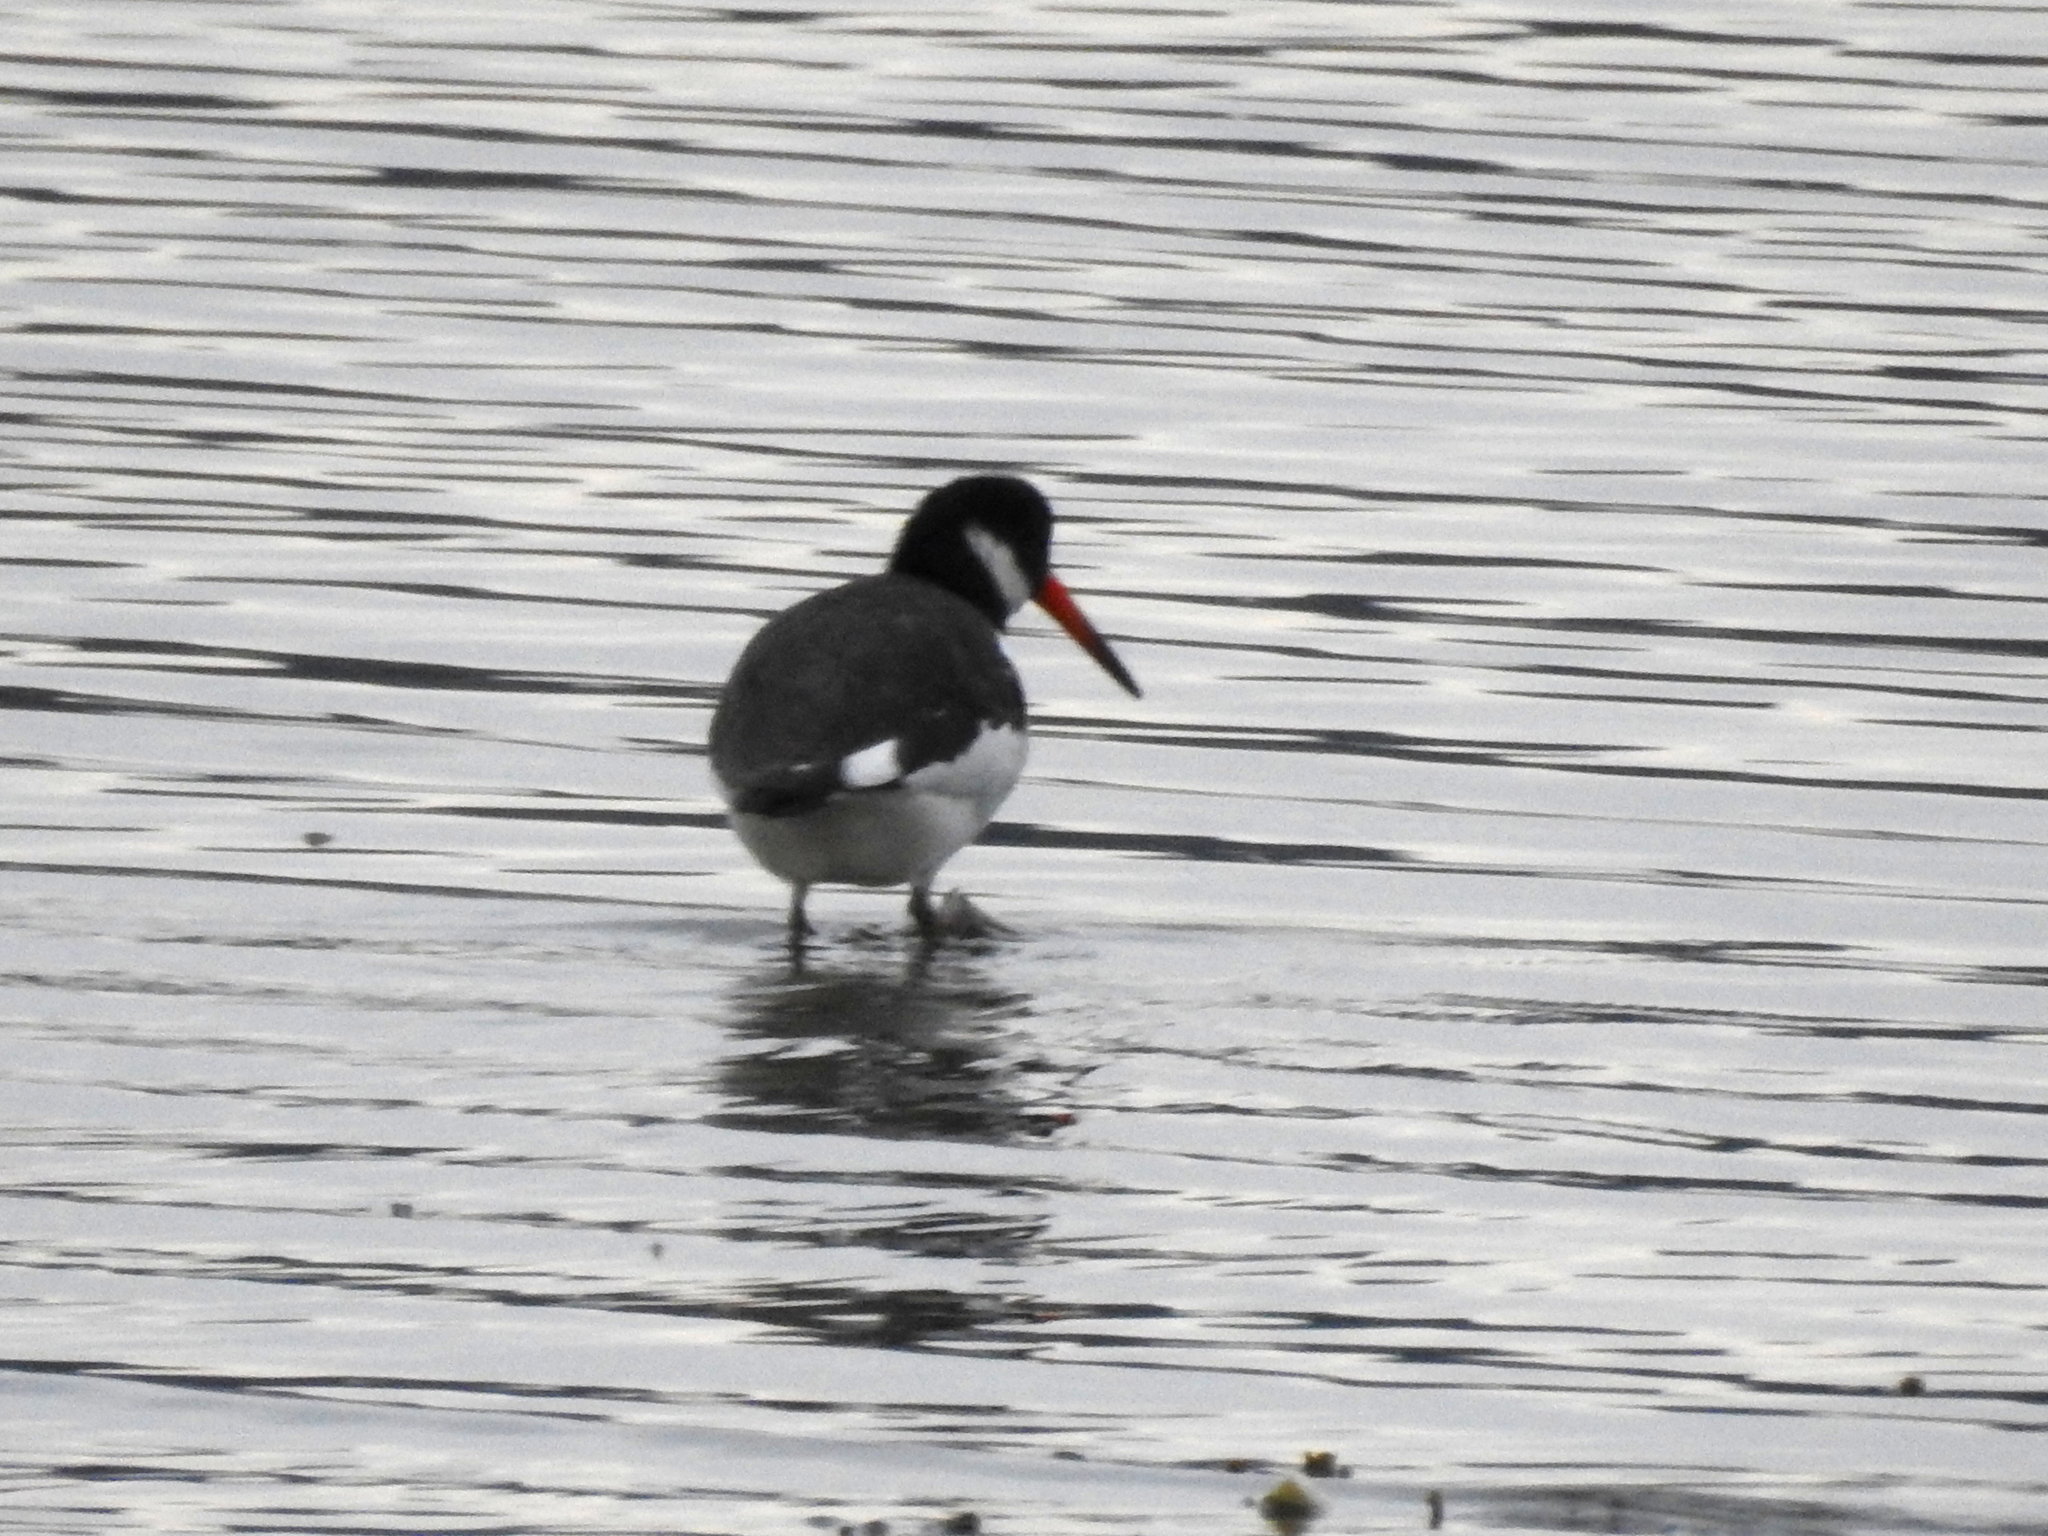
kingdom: Animalia
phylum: Chordata
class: Aves
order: Charadriiformes
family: Haematopodidae
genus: Haematopus
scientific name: Haematopus ostralegus
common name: Eurasian oystercatcher
